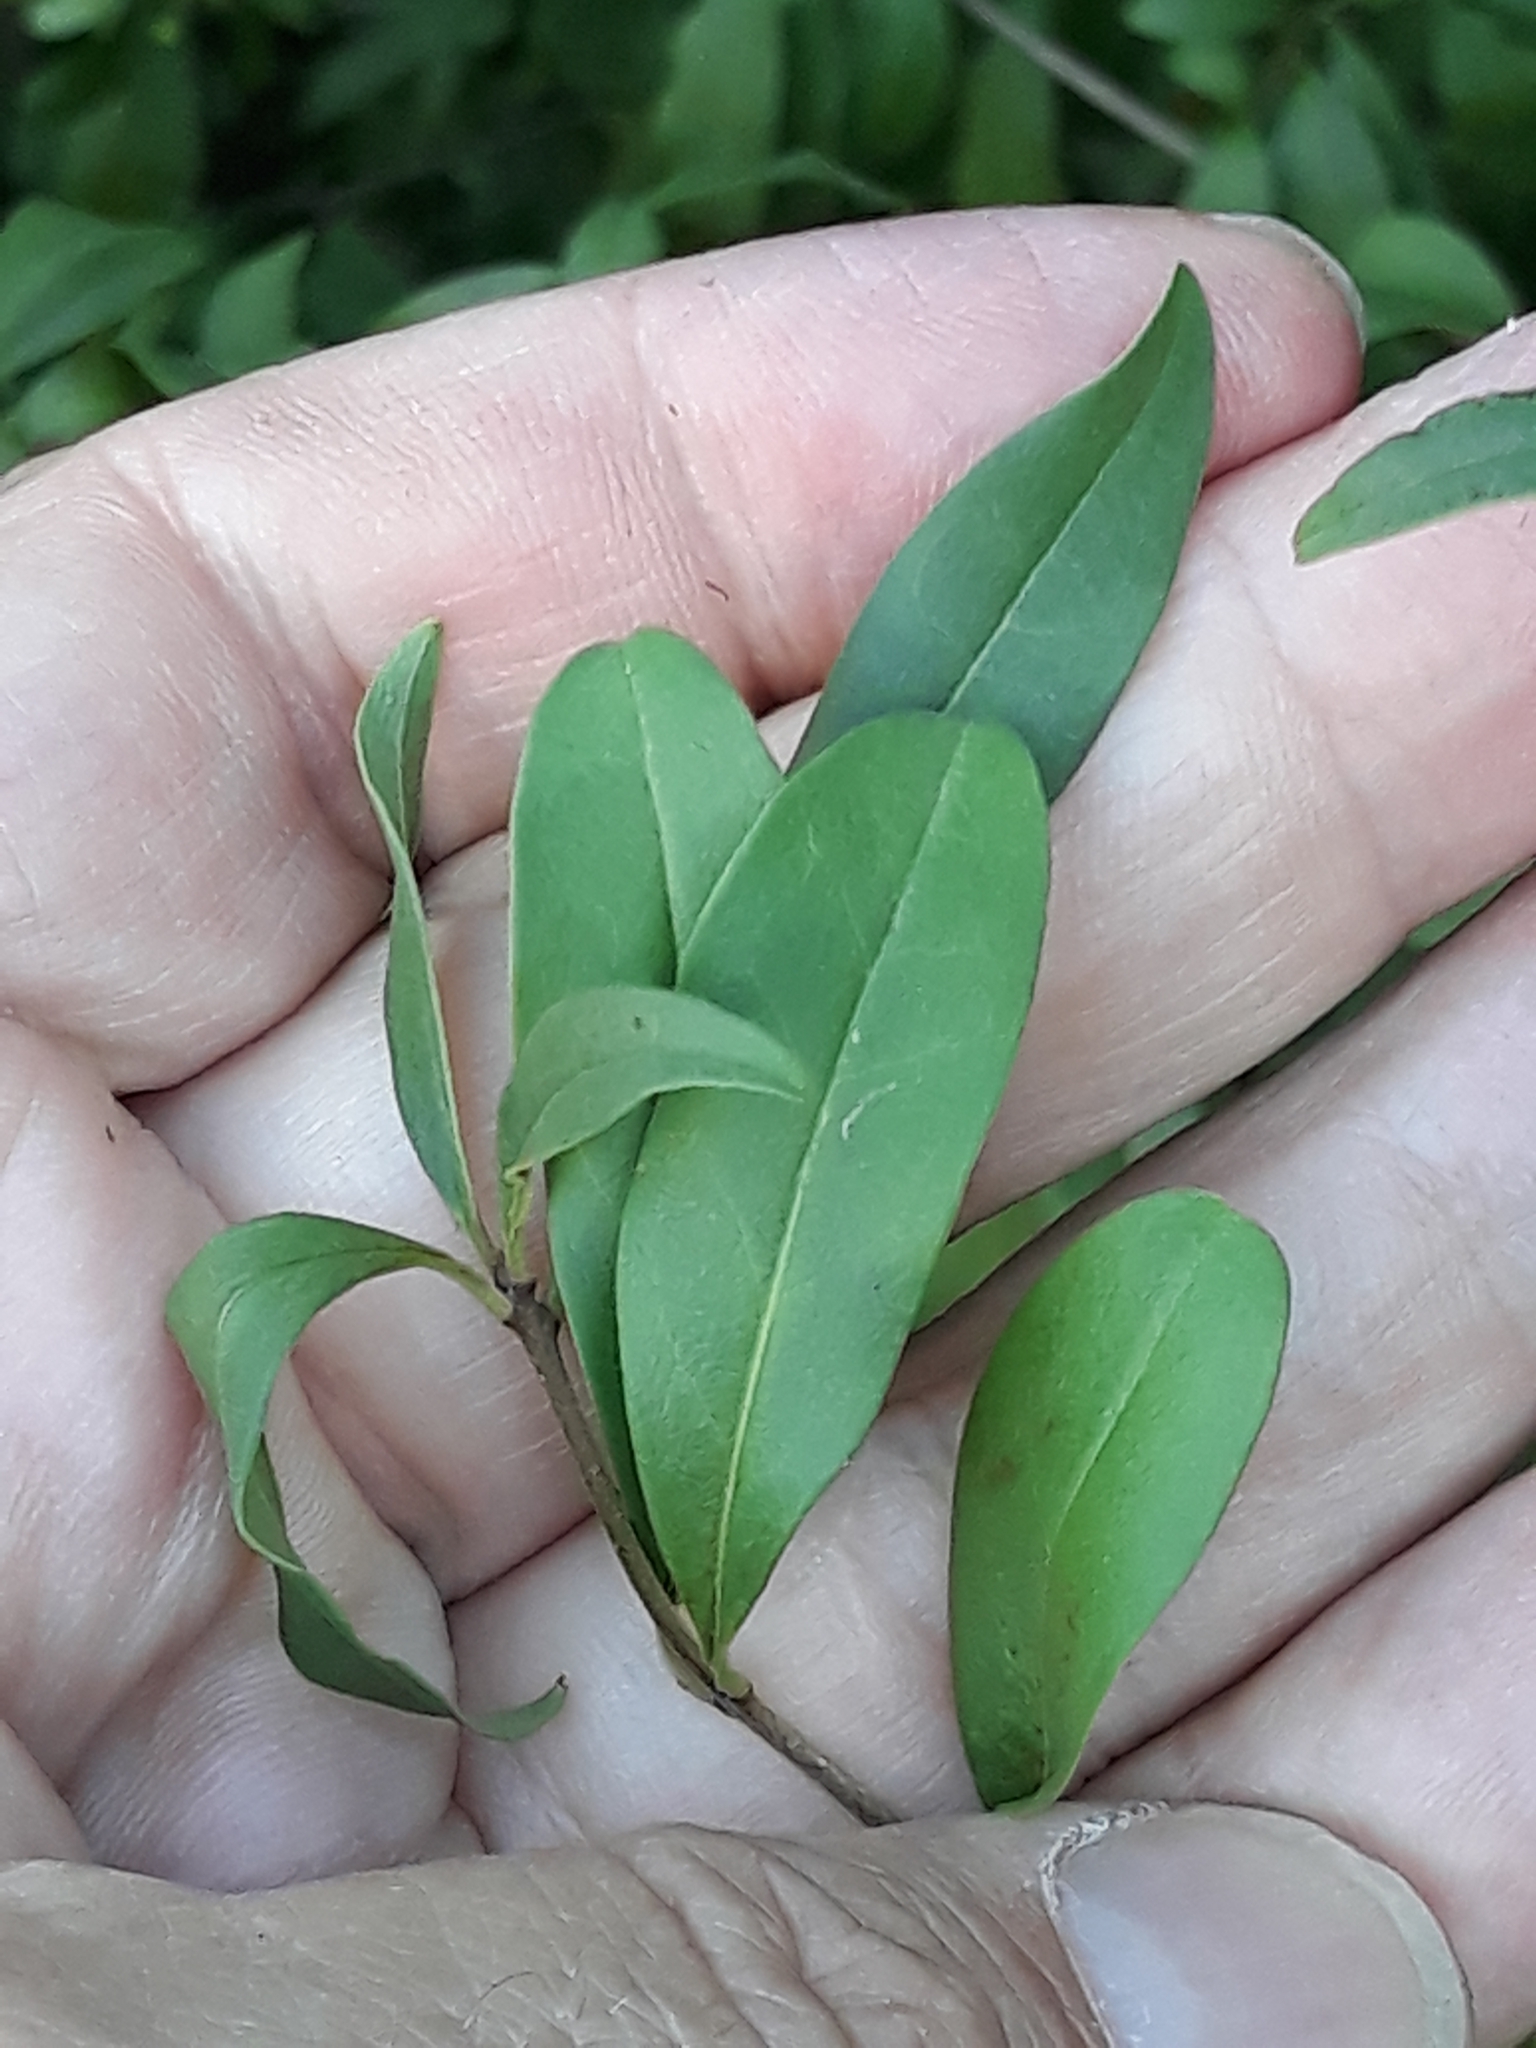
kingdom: Plantae
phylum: Tracheophyta
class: Magnoliopsida
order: Lamiales
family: Oleaceae
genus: Ligustrum
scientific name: Ligustrum vulgare
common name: Wild privet
